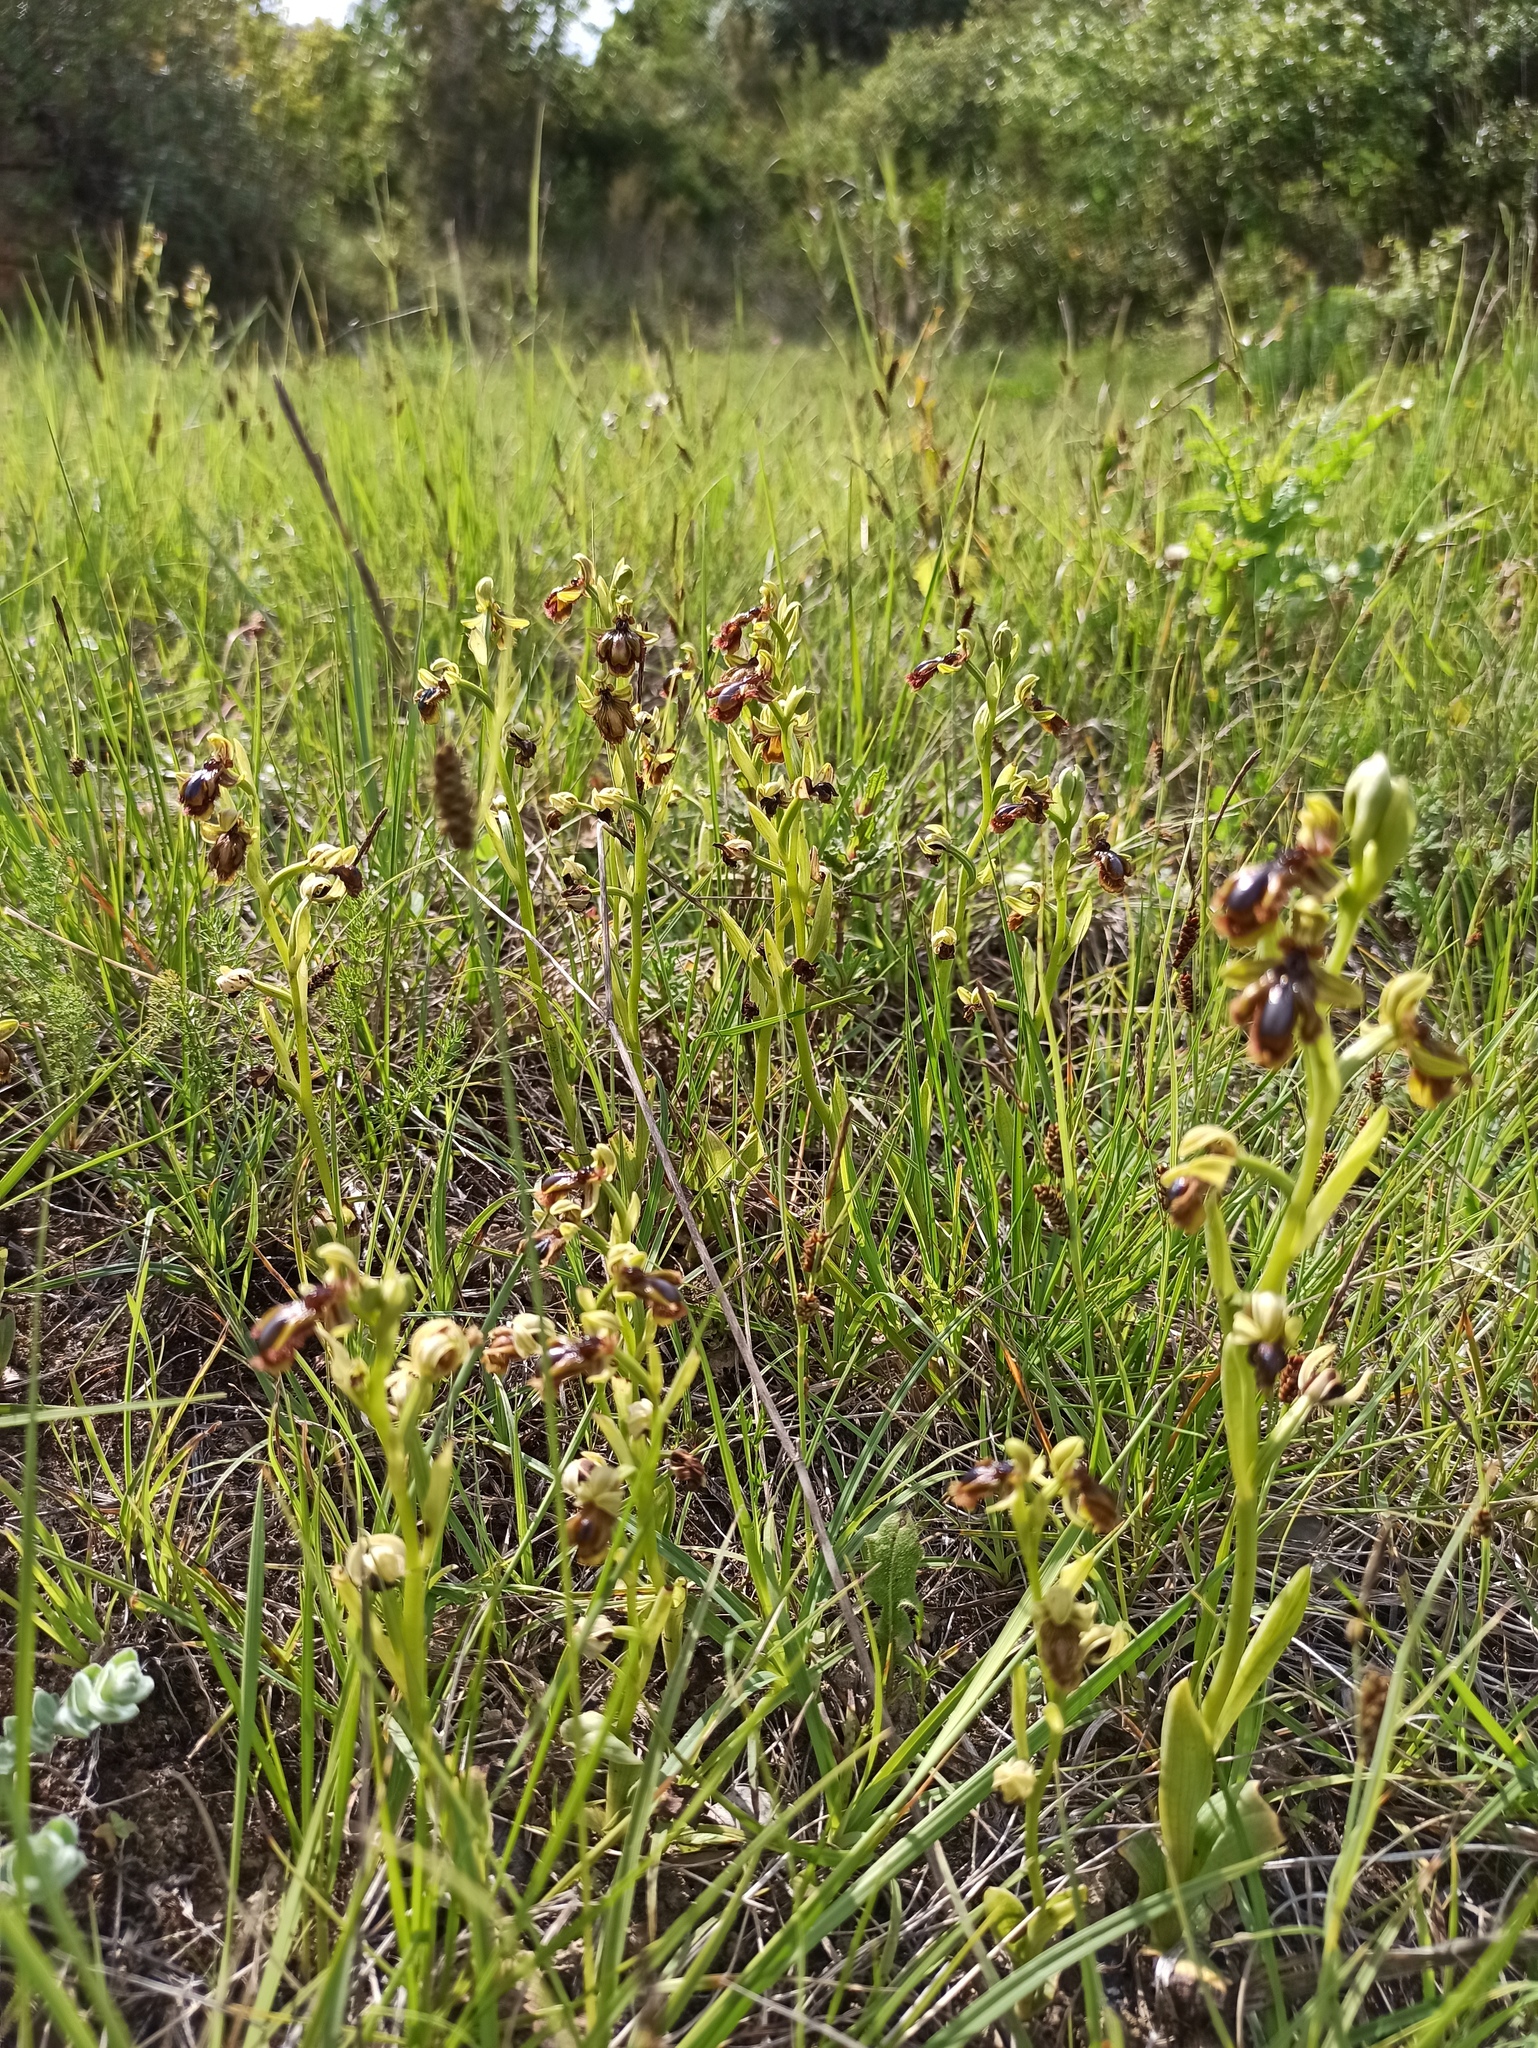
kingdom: Plantae
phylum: Tracheophyta
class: Liliopsida
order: Asparagales
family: Orchidaceae
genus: Ophrys
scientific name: Ophrys speculum
